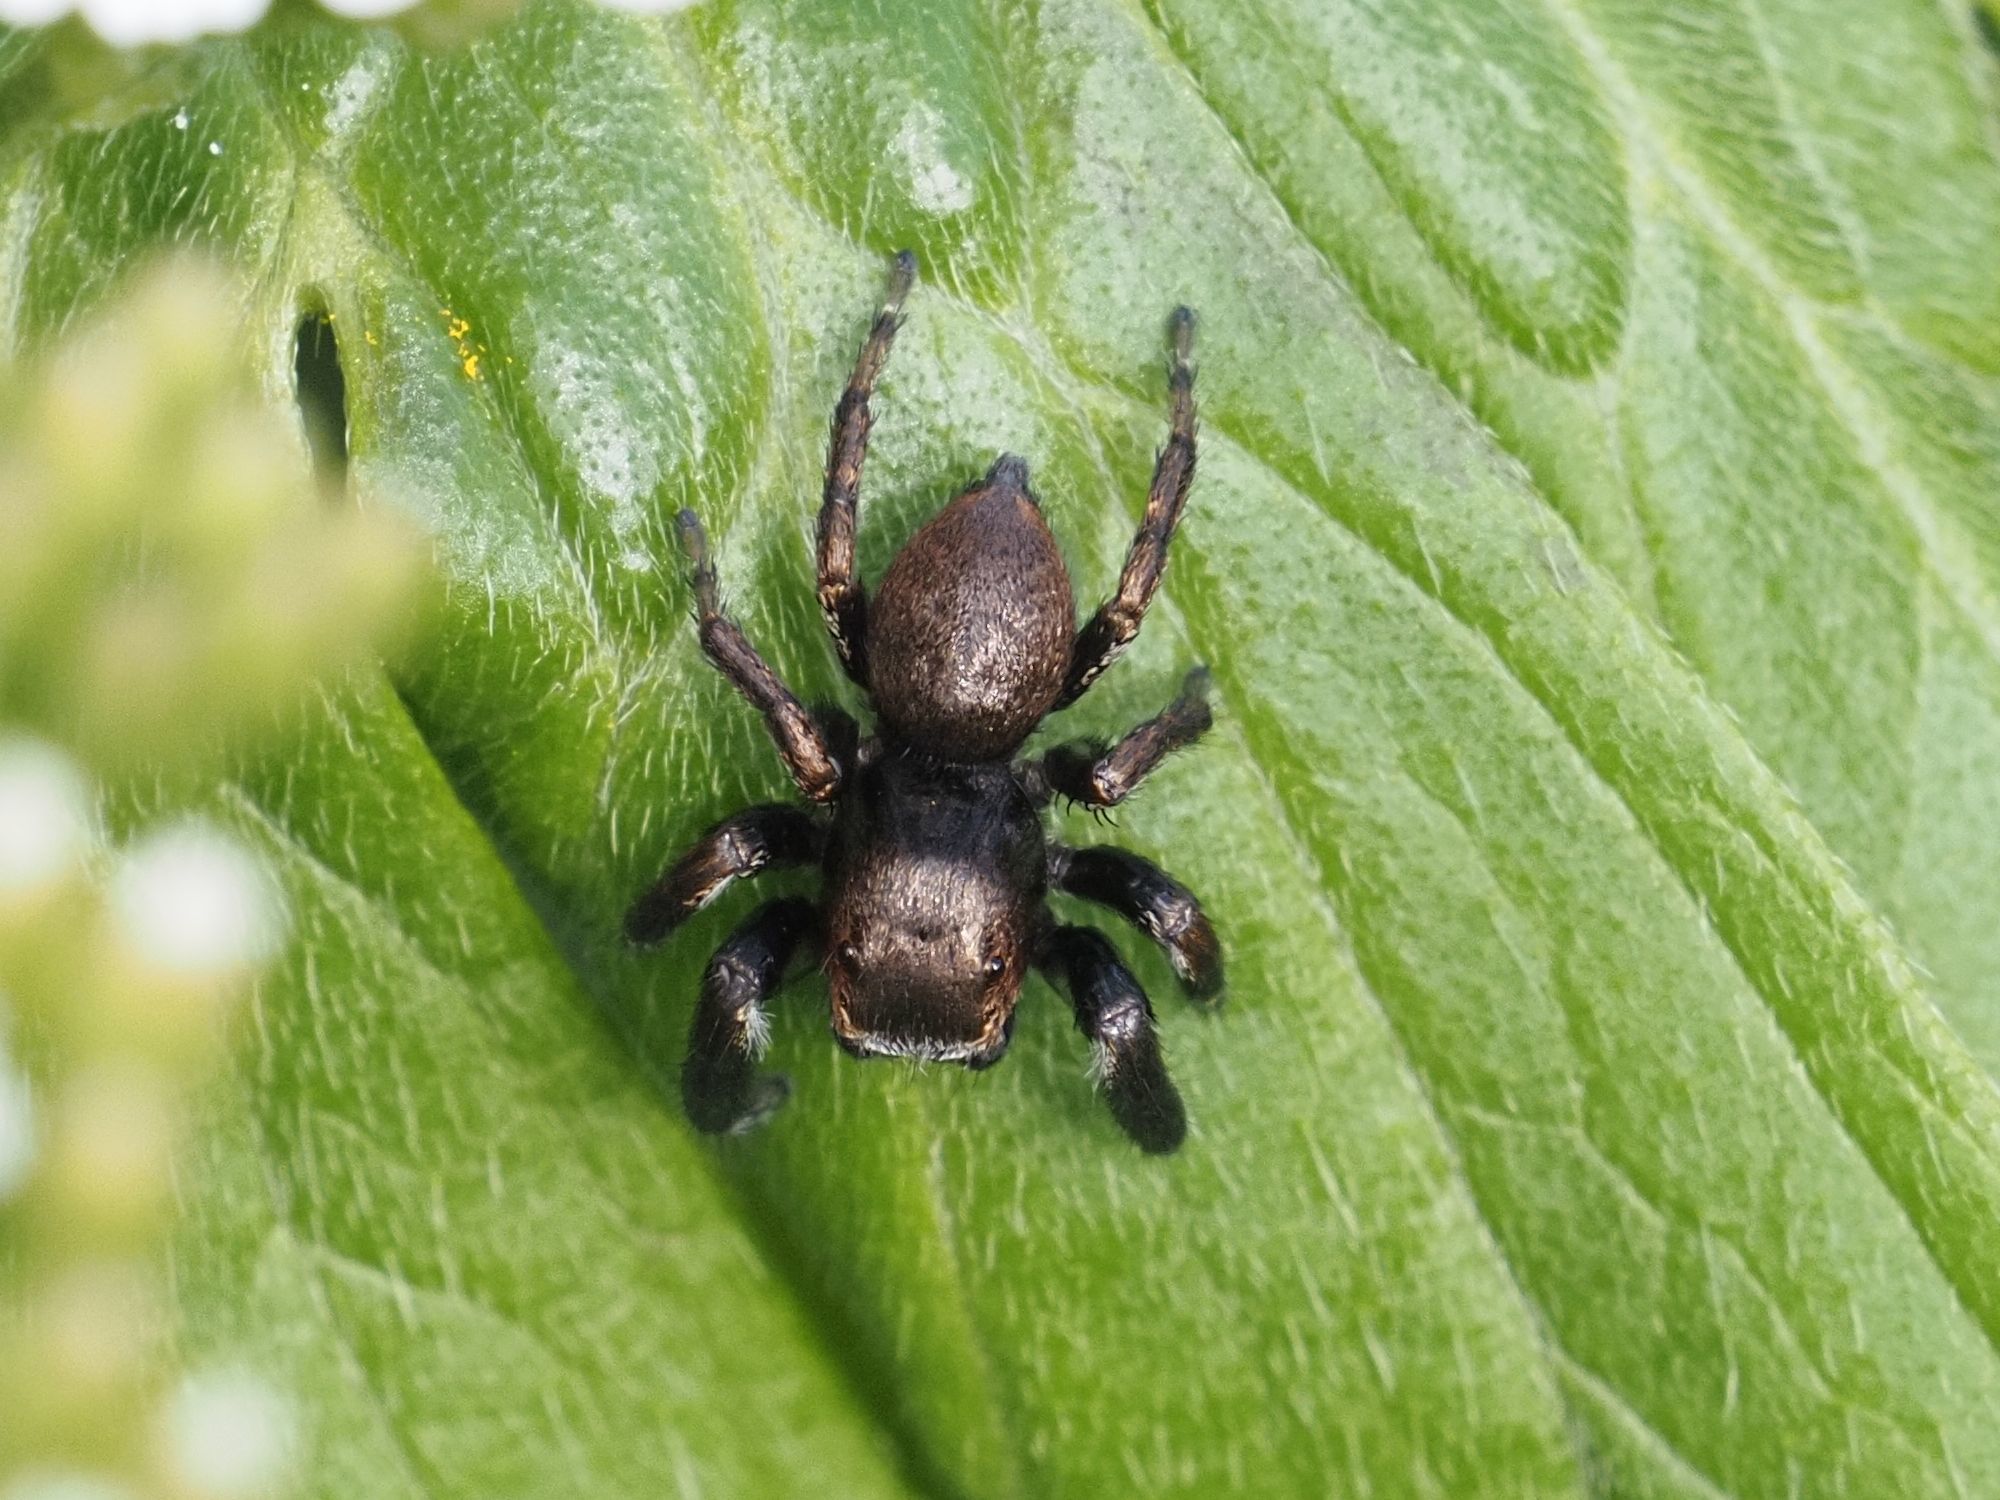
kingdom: Animalia
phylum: Arthropoda
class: Arachnida
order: Araneae
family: Salticidae
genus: Evarcha
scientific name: Evarcha arcuata
